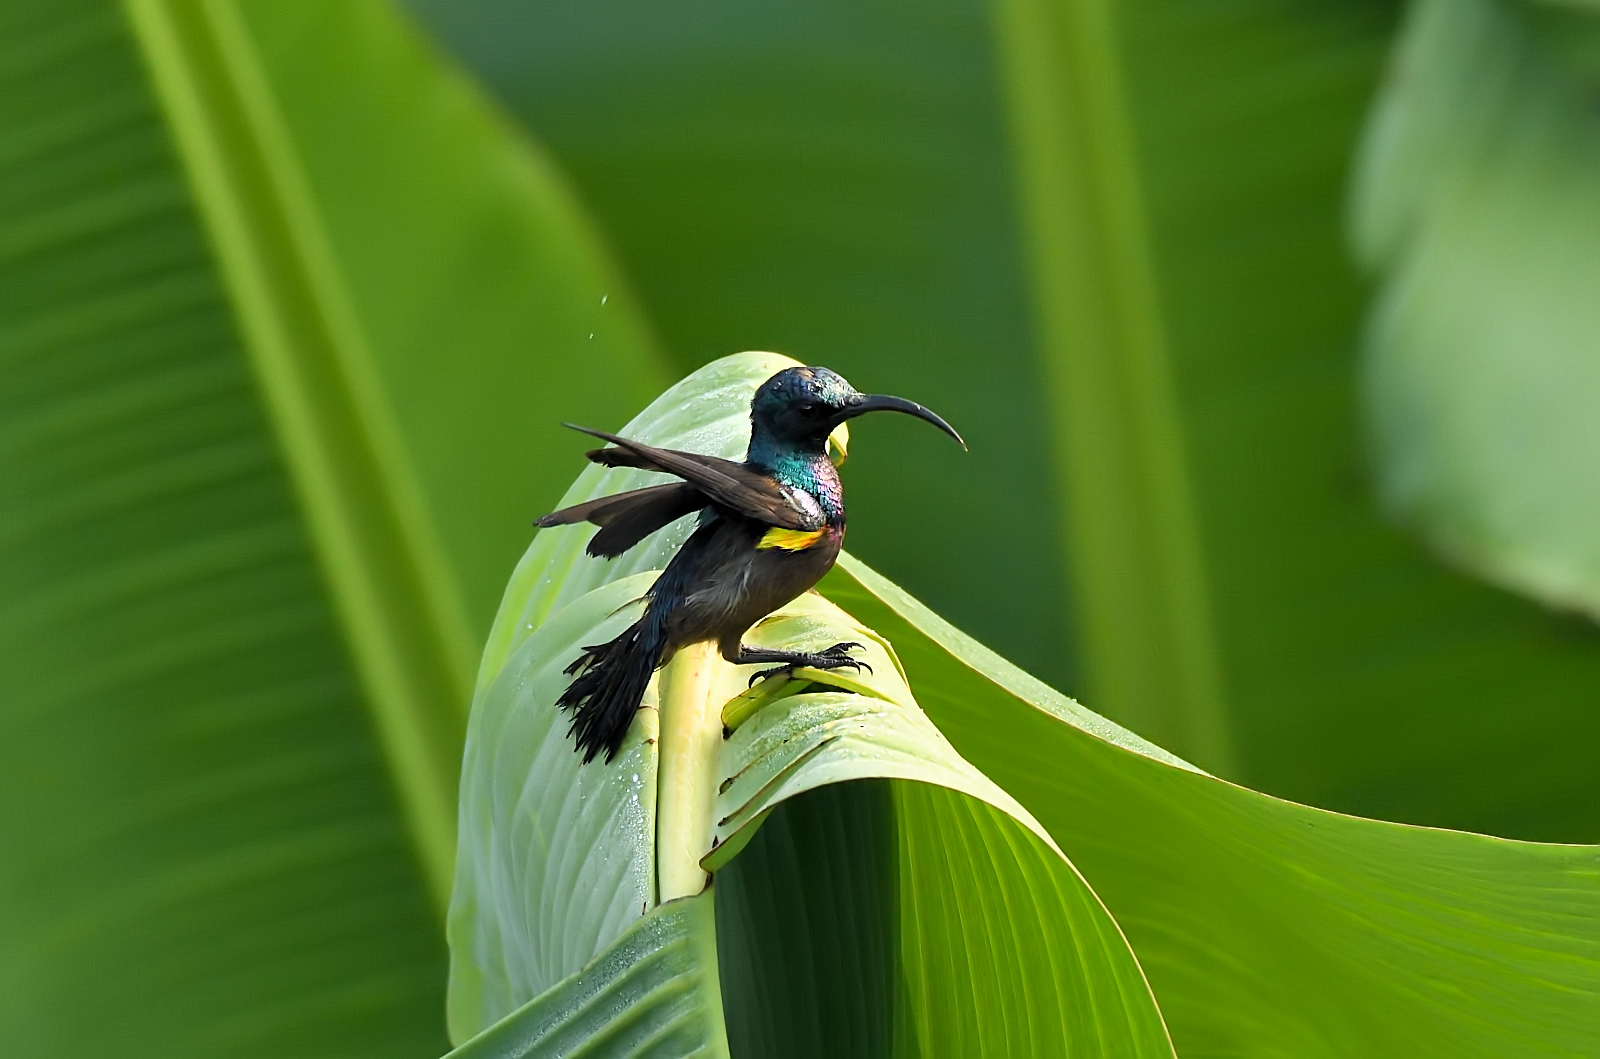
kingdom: Animalia
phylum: Chordata
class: Aves
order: Passeriformes
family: Nectariniidae
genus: Cinnyris
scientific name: Cinnyris lotenius
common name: Loten's sunbird
